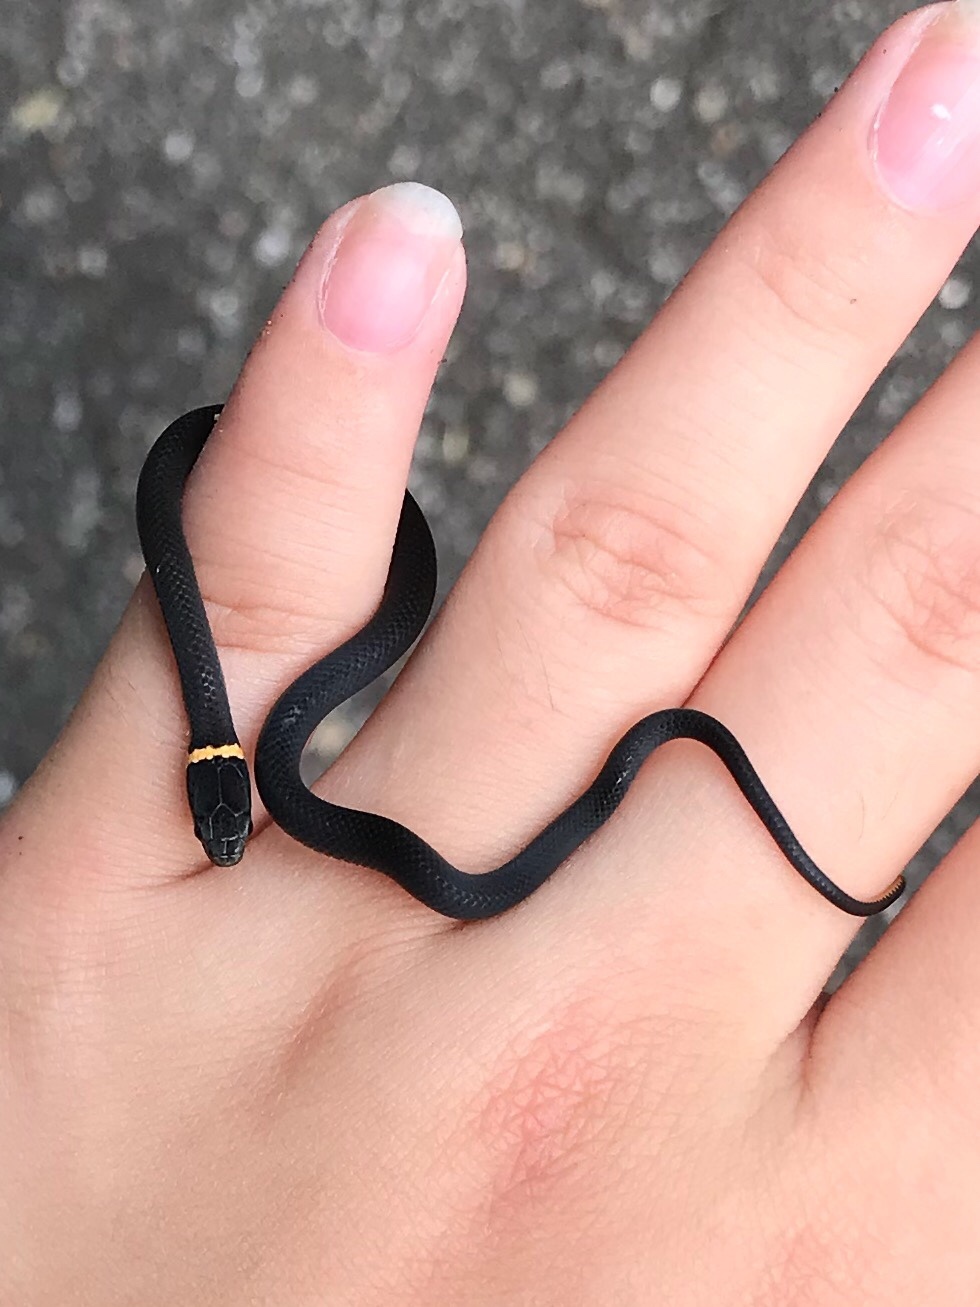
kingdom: Animalia
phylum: Chordata
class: Squamata
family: Colubridae
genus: Diadophis
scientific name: Diadophis punctatus
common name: Ringneck snake
